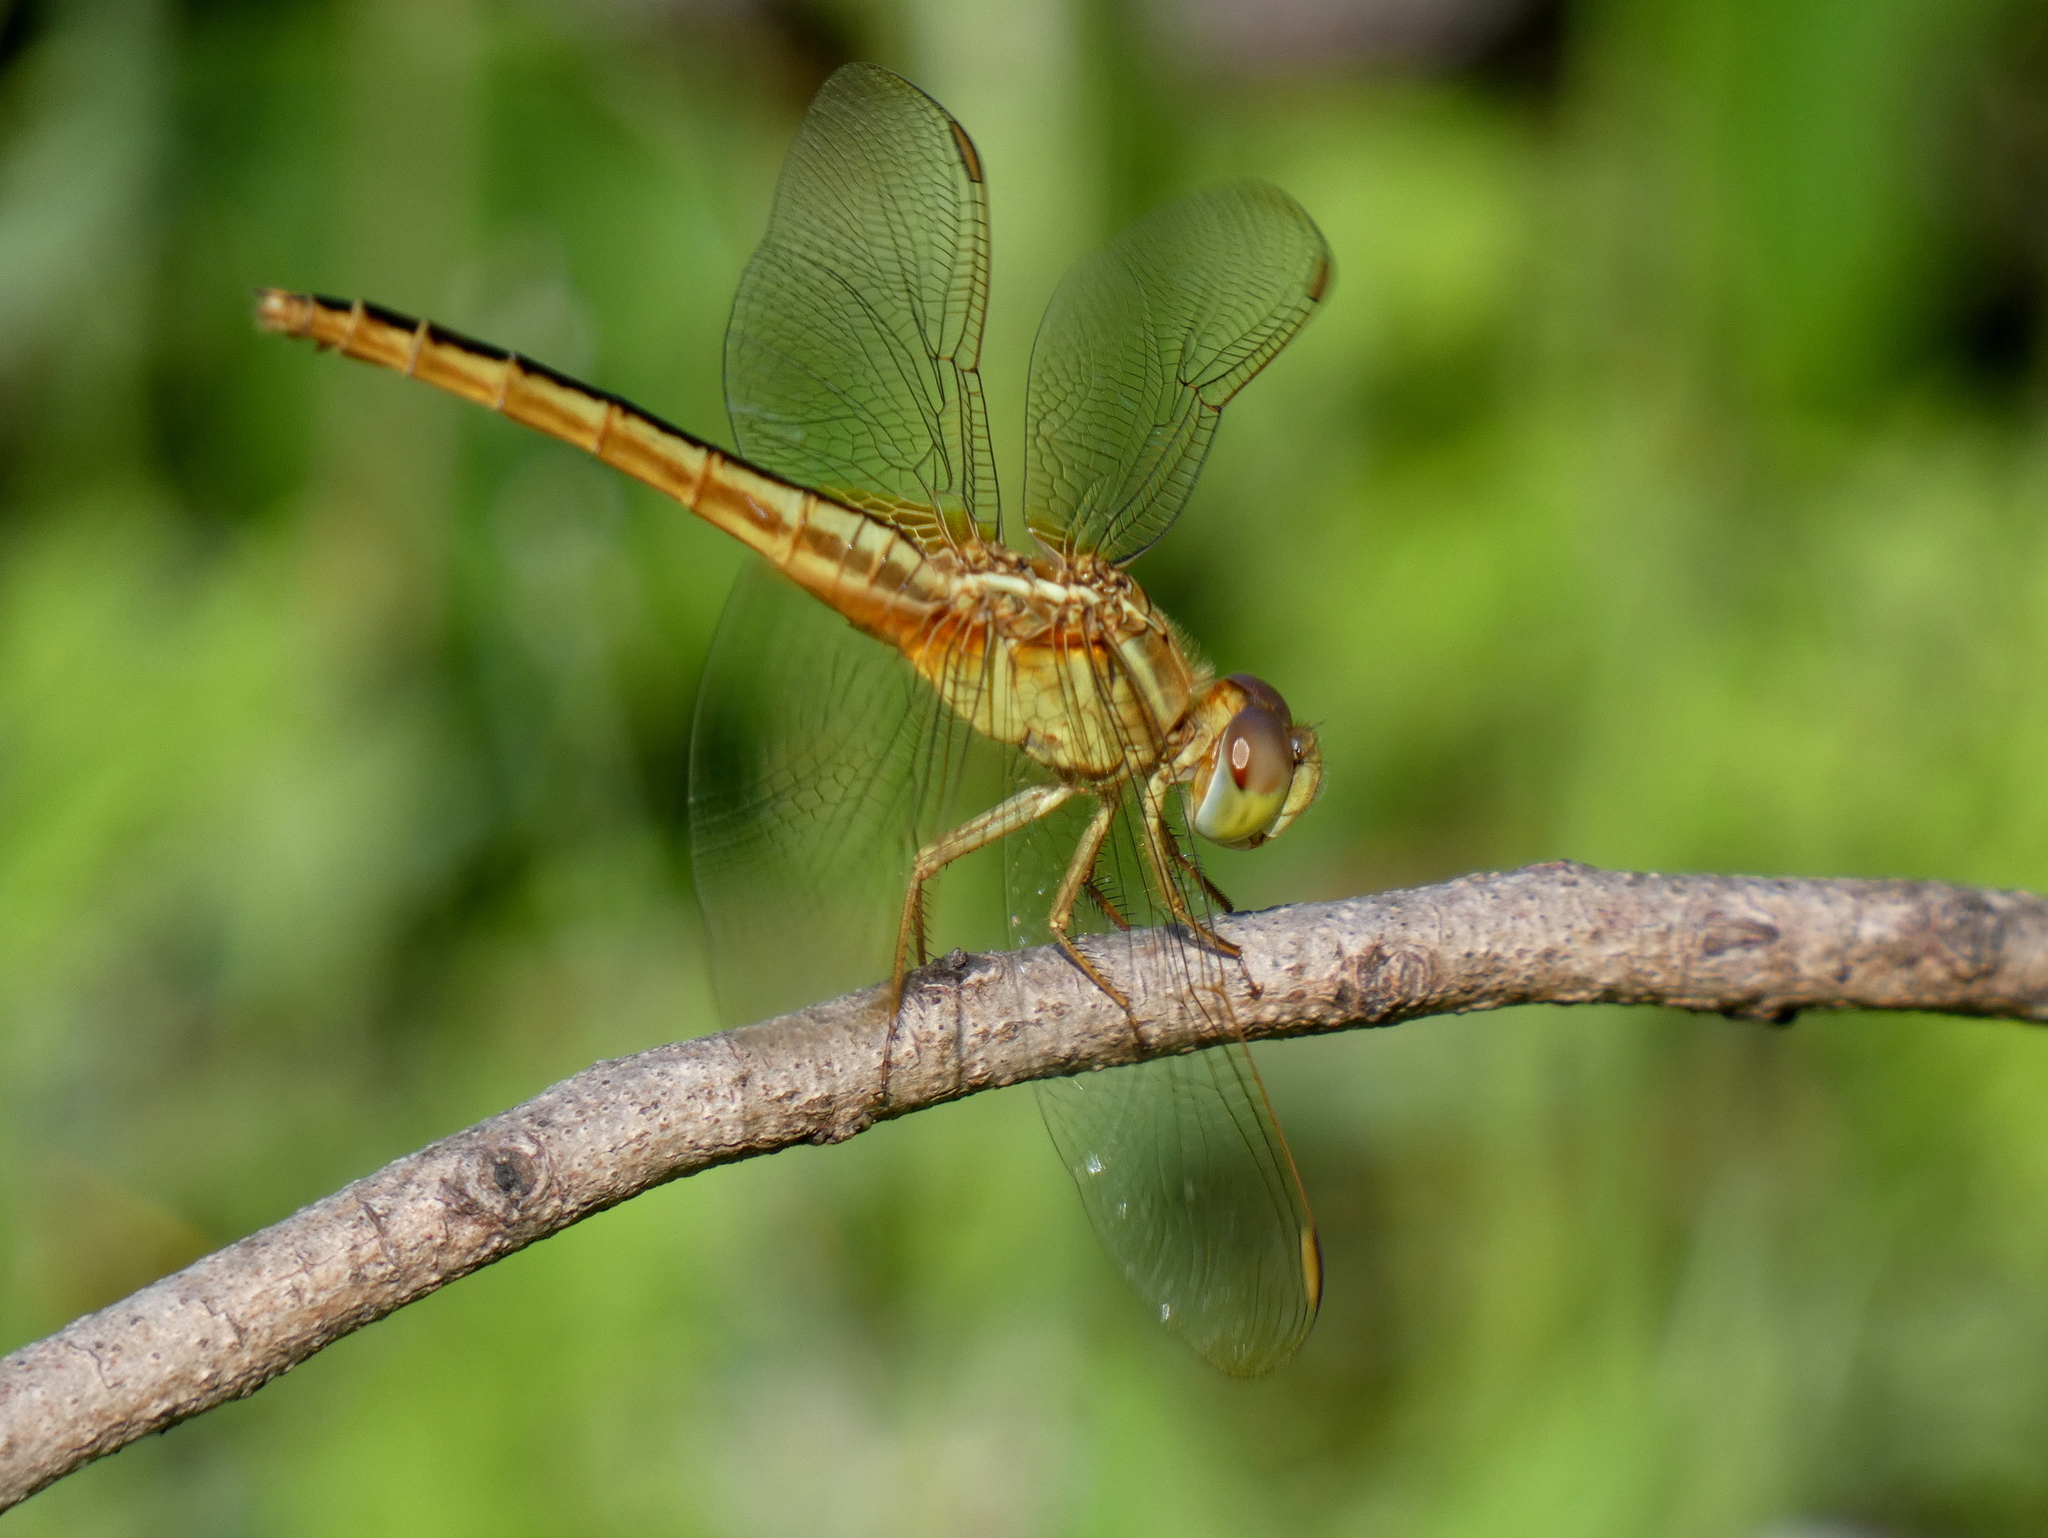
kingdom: Animalia
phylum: Arthropoda
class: Insecta
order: Odonata
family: Libellulidae
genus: Crocothemis
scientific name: Crocothemis servilia
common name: Scarlet skimmer
